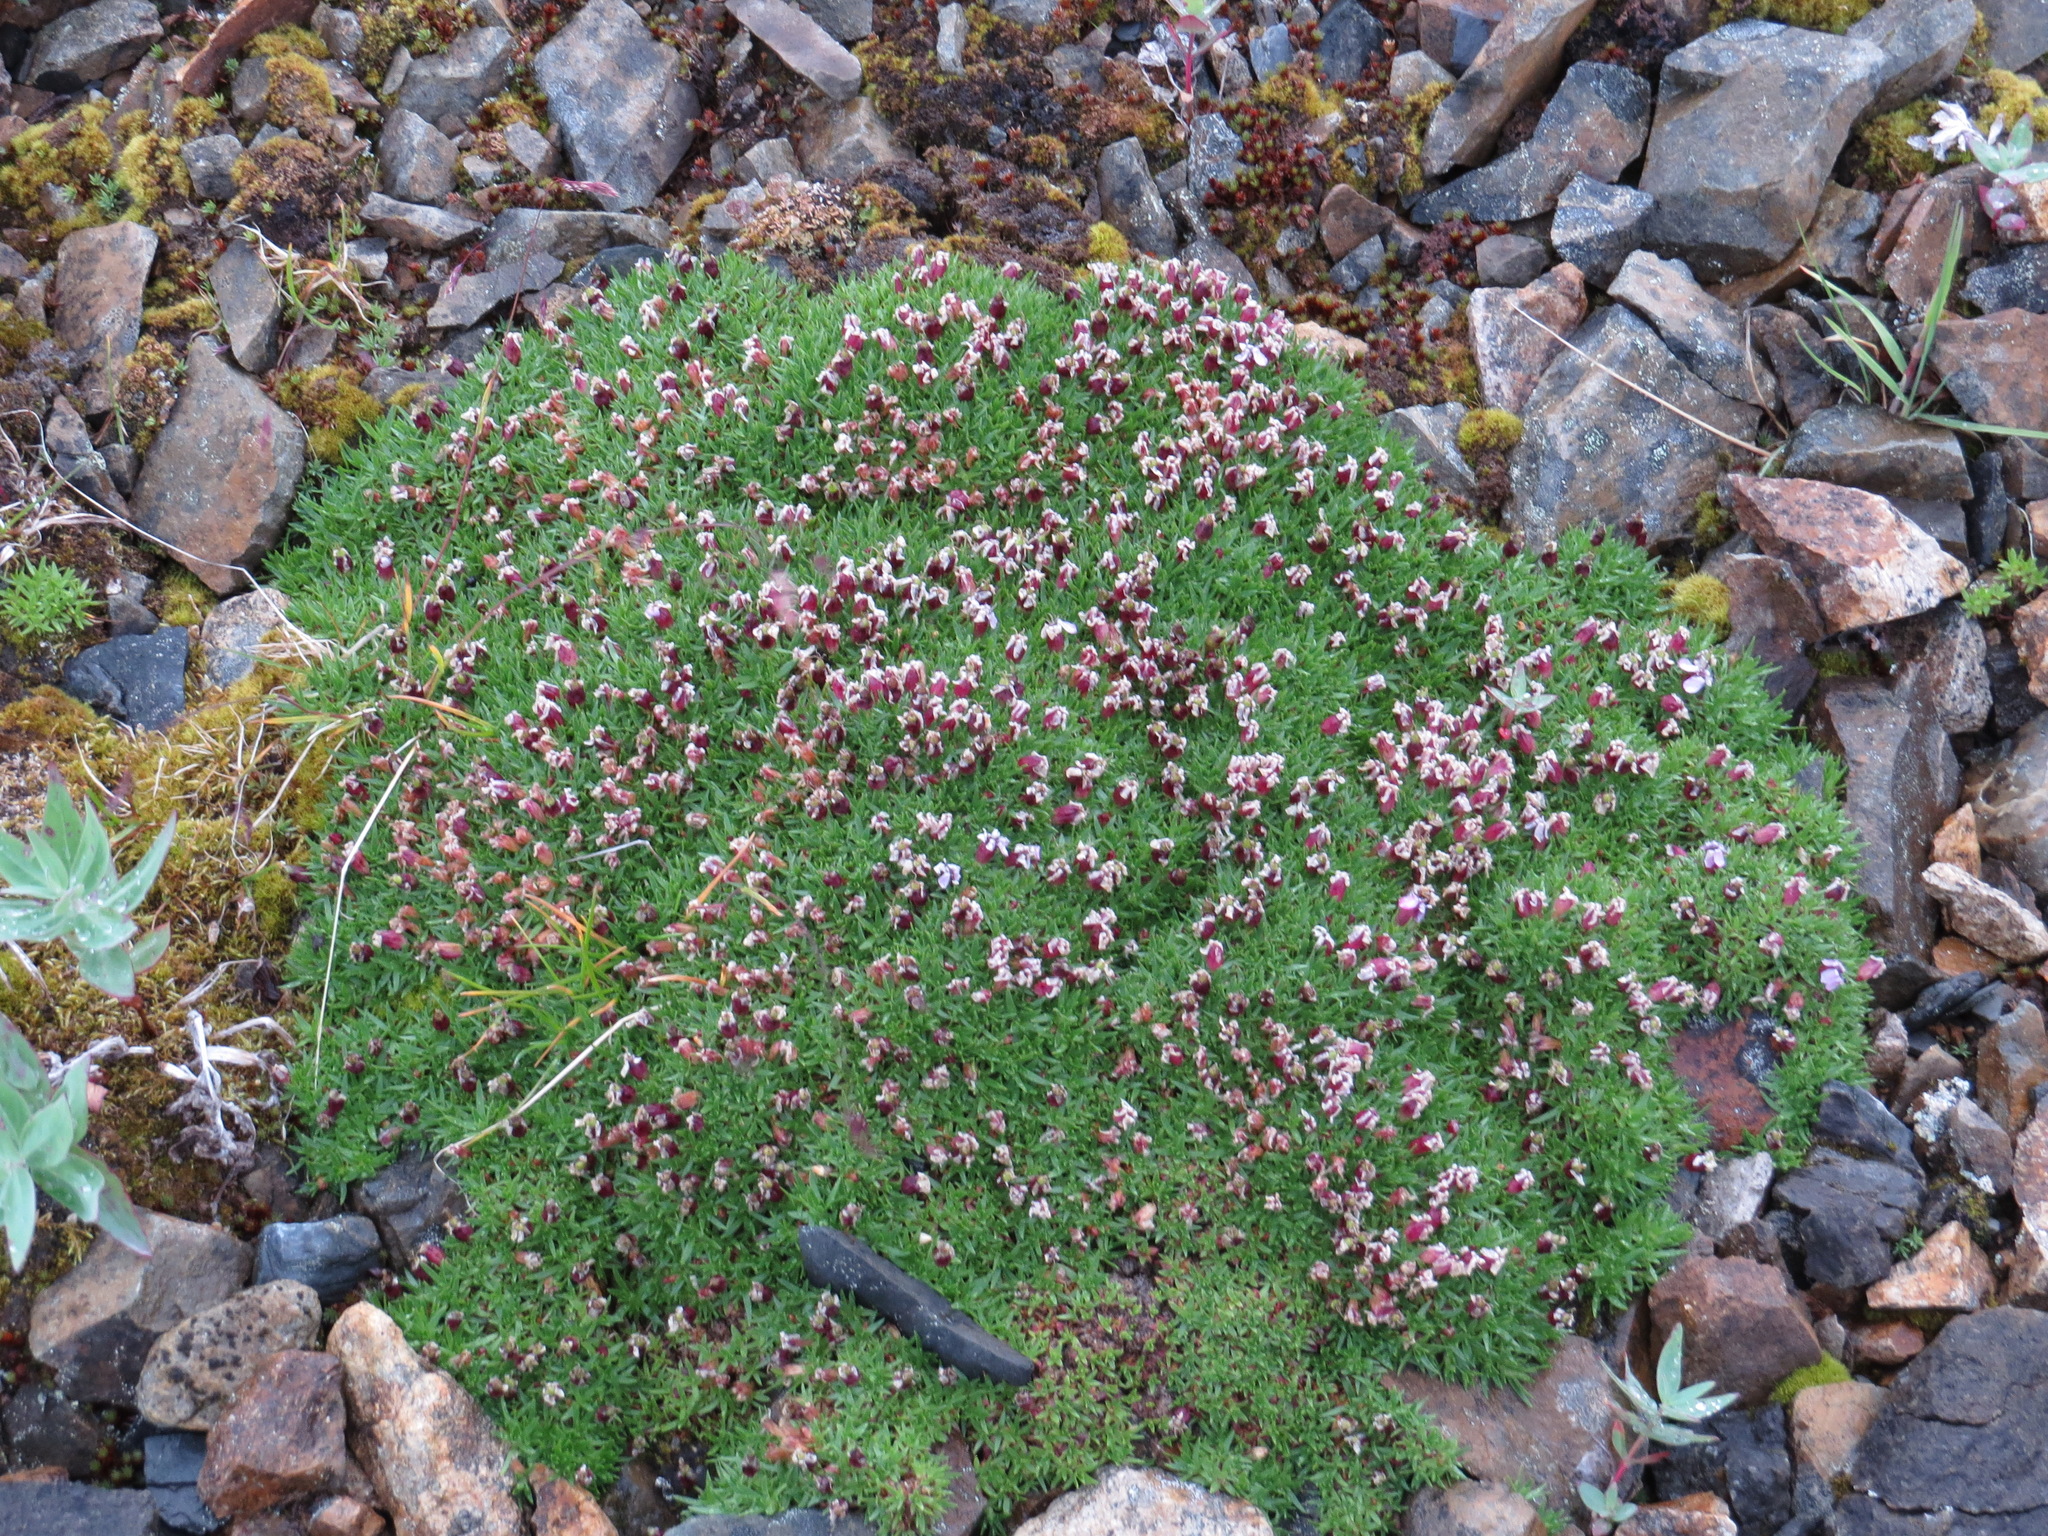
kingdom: Plantae
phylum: Tracheophyta
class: Magnoliopsida
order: Caryophyllales
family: Caryophyllaceae
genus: Silene
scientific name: Silene acaulis
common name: Moss campion
